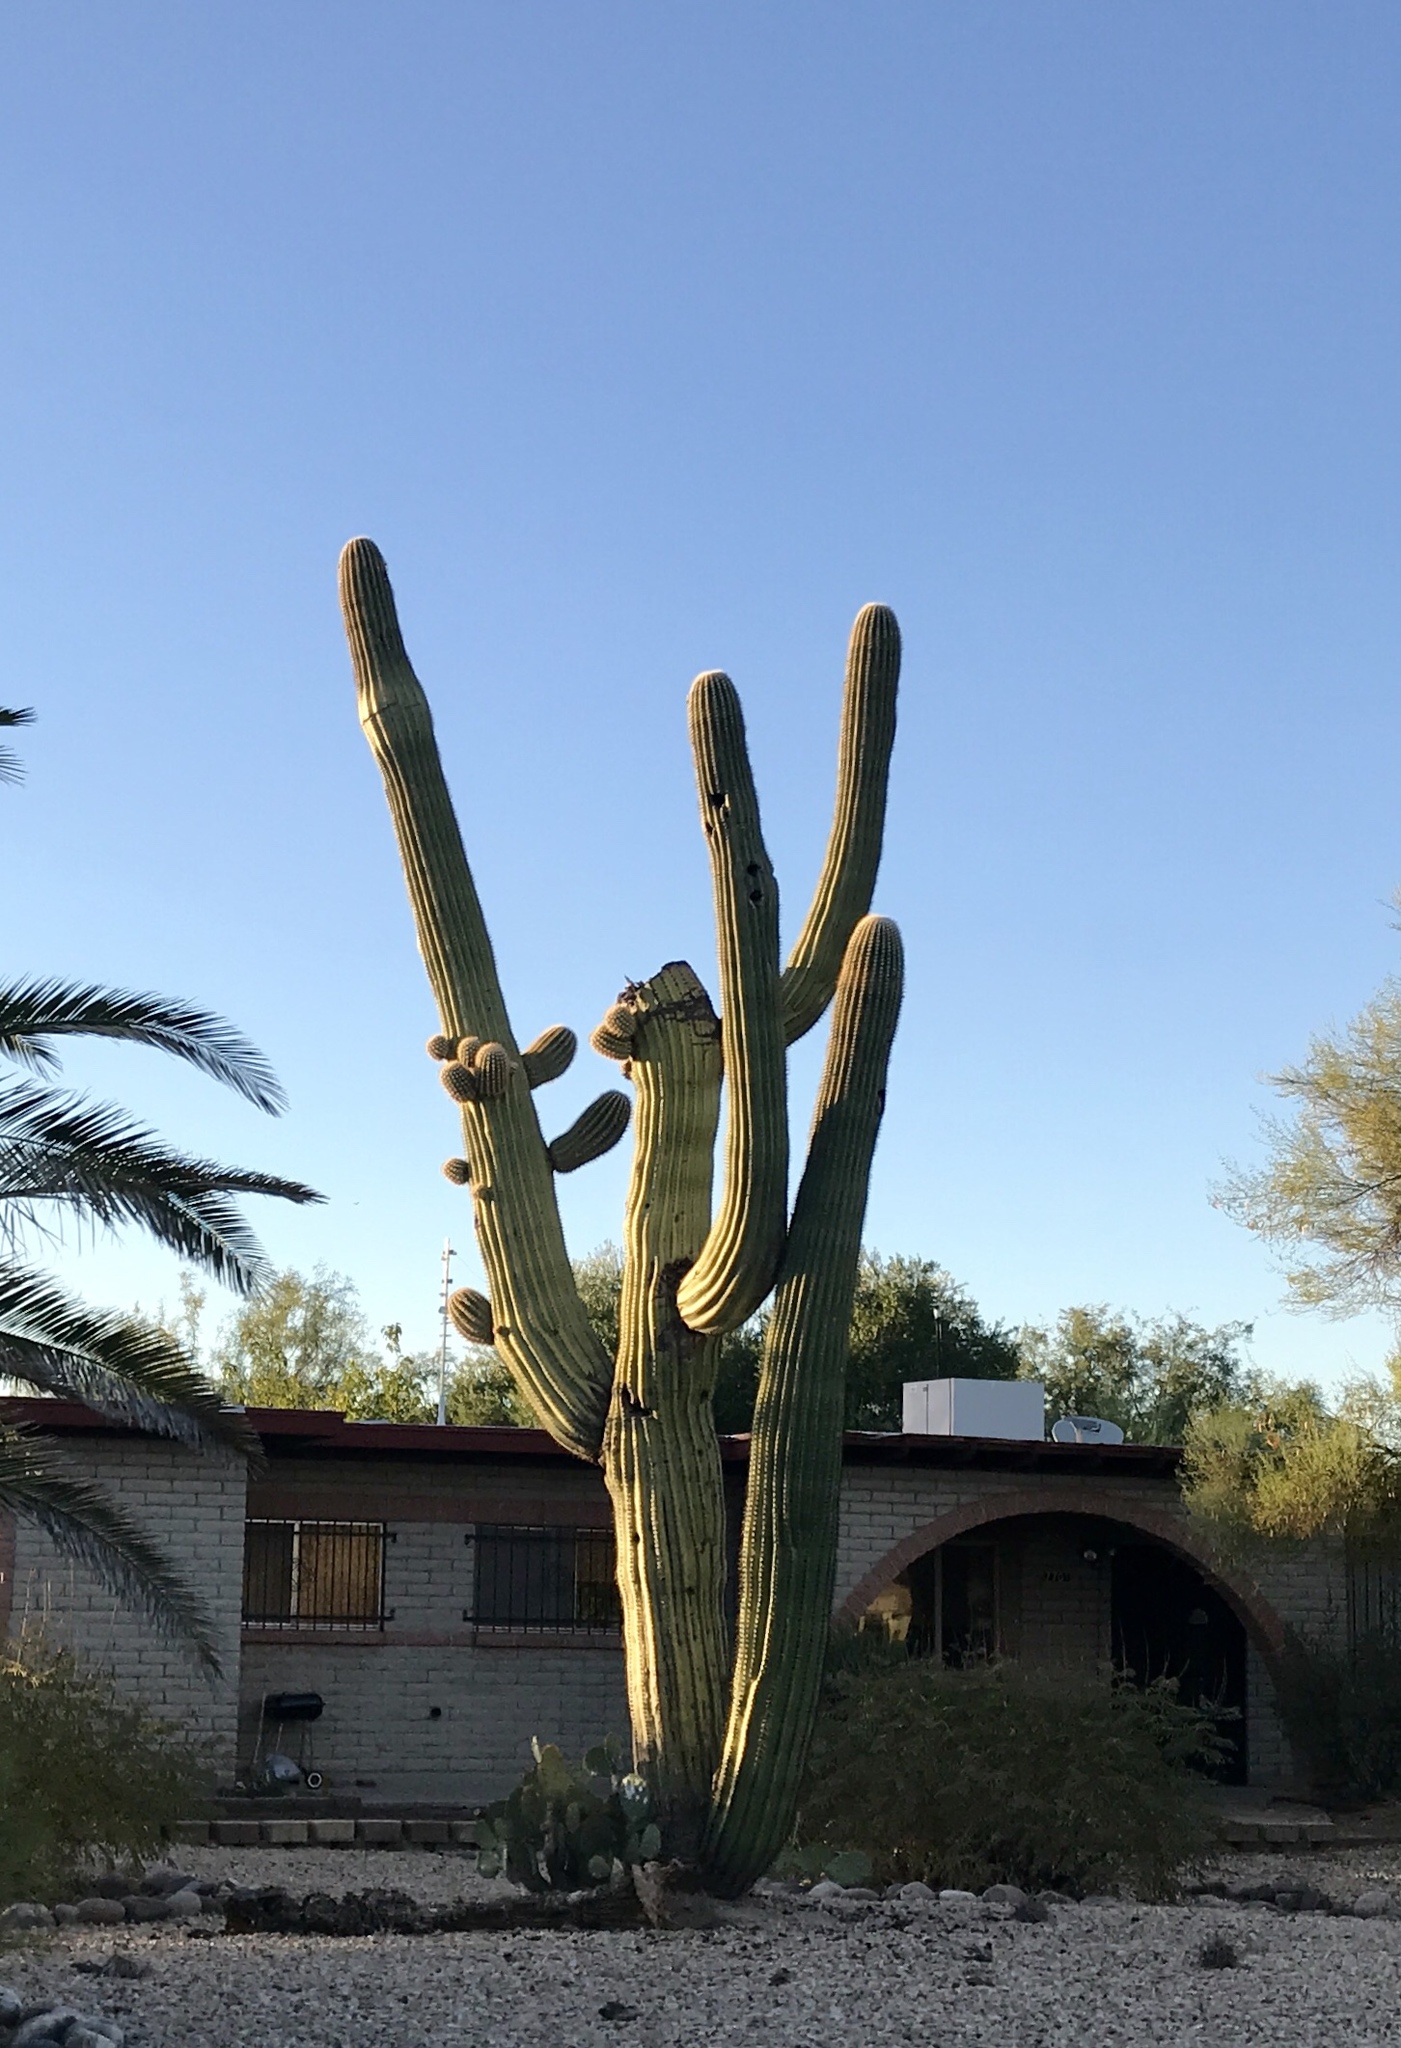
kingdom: Plantae
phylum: Tracheophyta
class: Magnoliopsida
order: Caryophyllales
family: Cactaceae
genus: Carnegiea
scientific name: Carnegiea gigantea
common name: Saguaro
